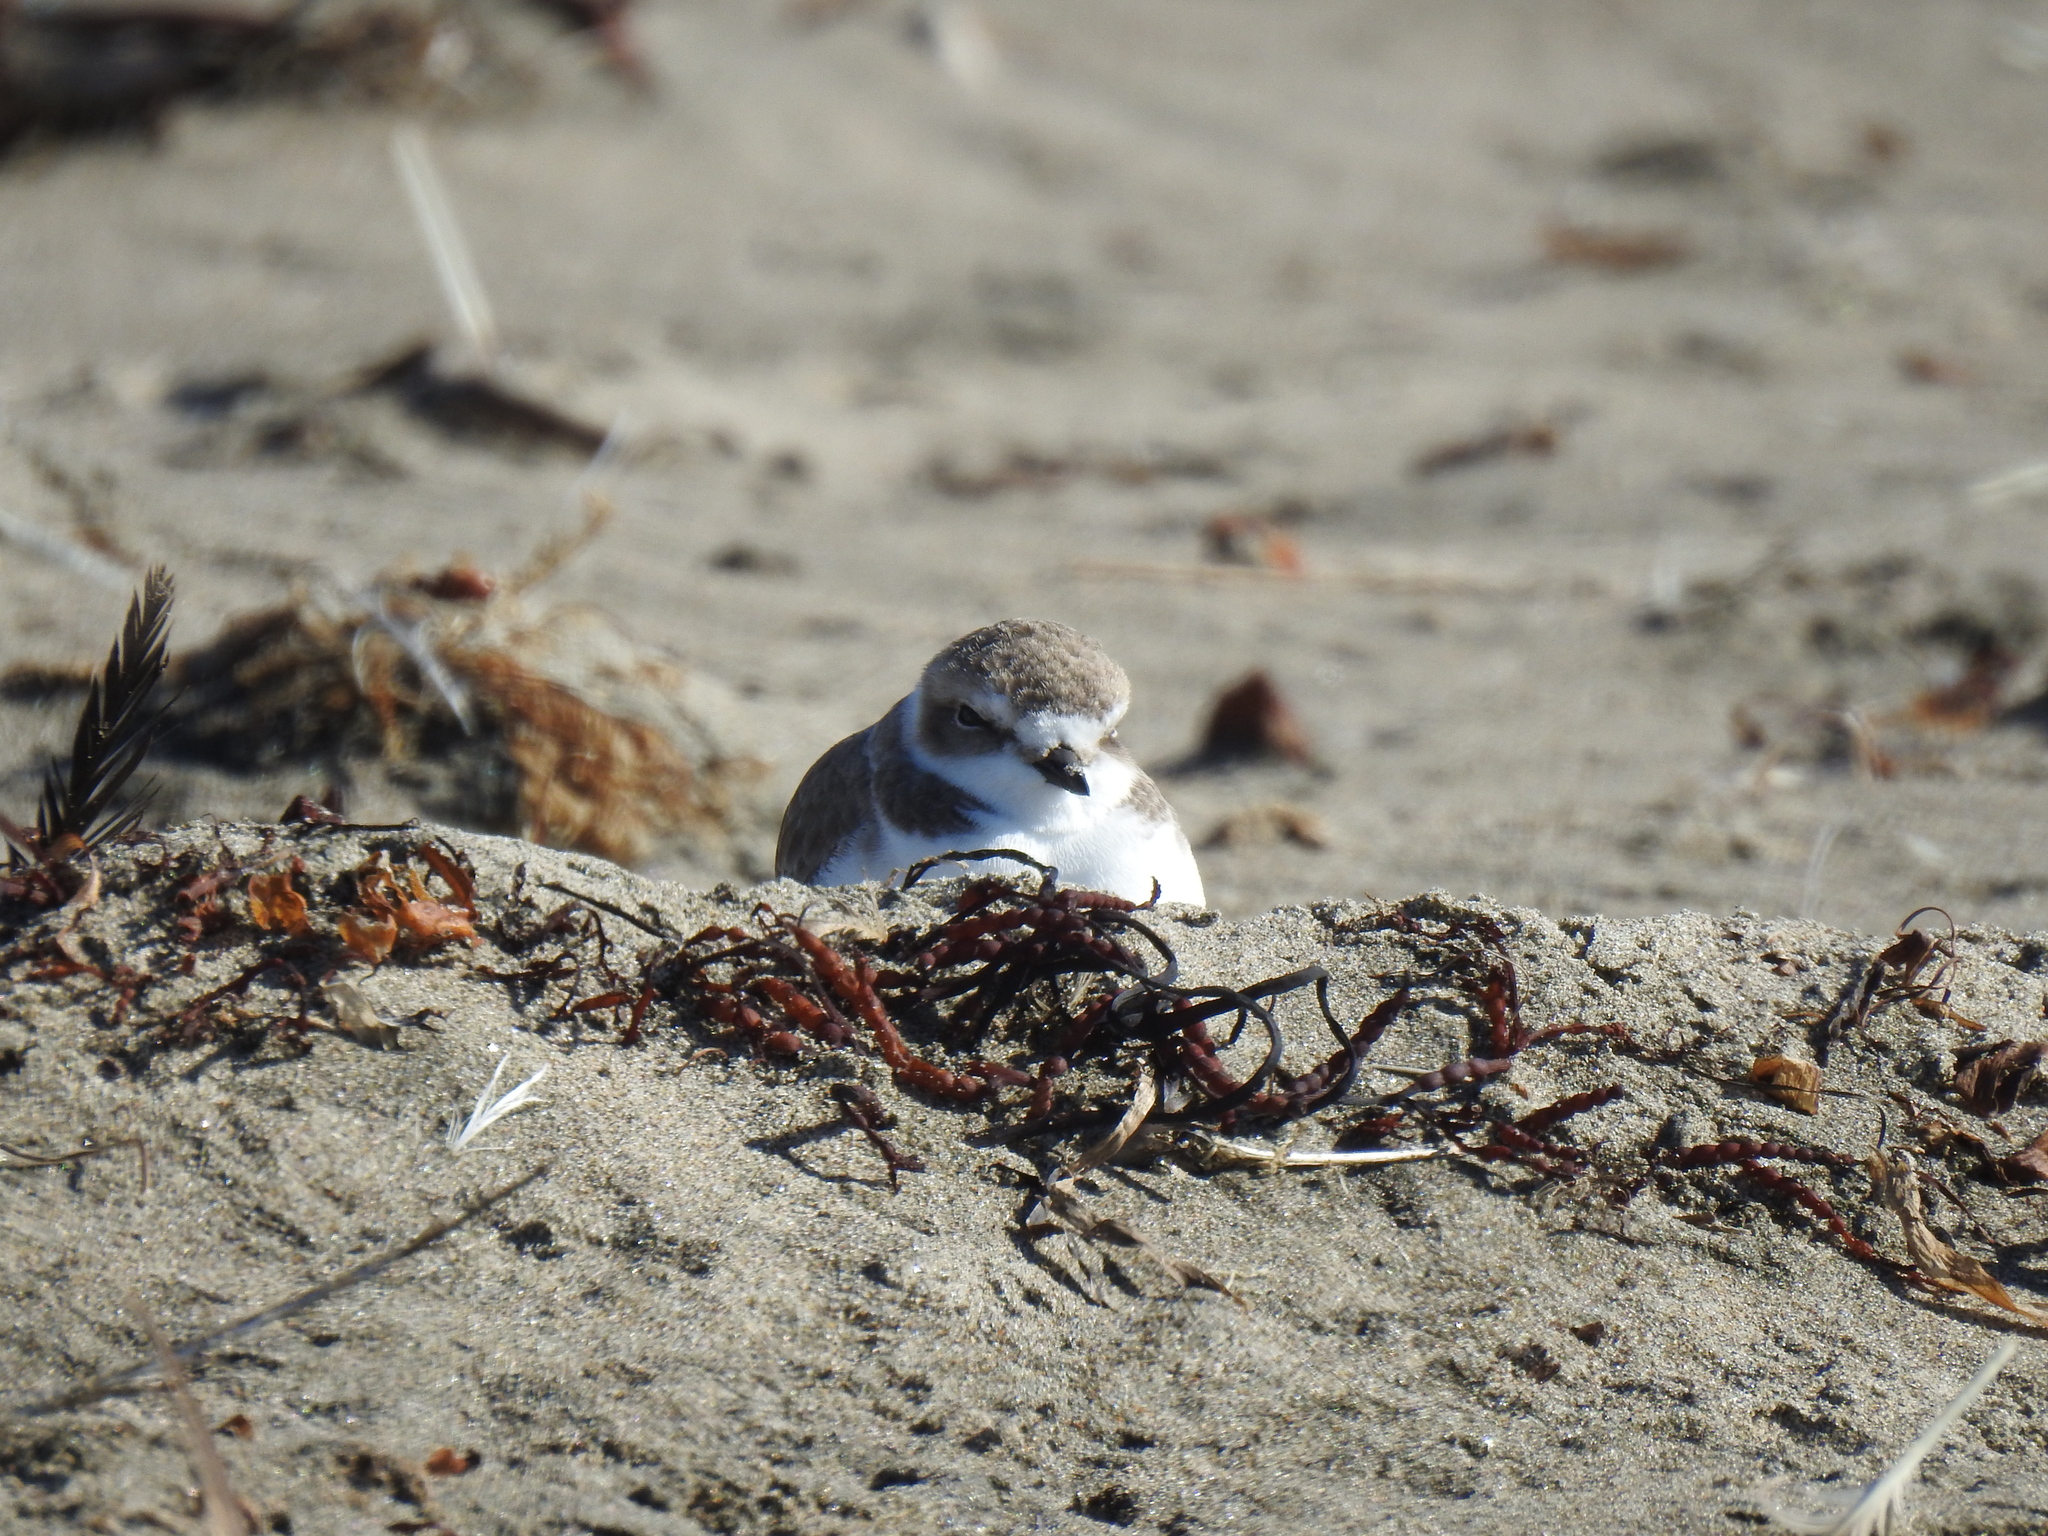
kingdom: Animalia
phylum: Chordata
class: Aves
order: Charadriiformes
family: Charadriidae
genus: Anarhynchus
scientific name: Anarhynchus
